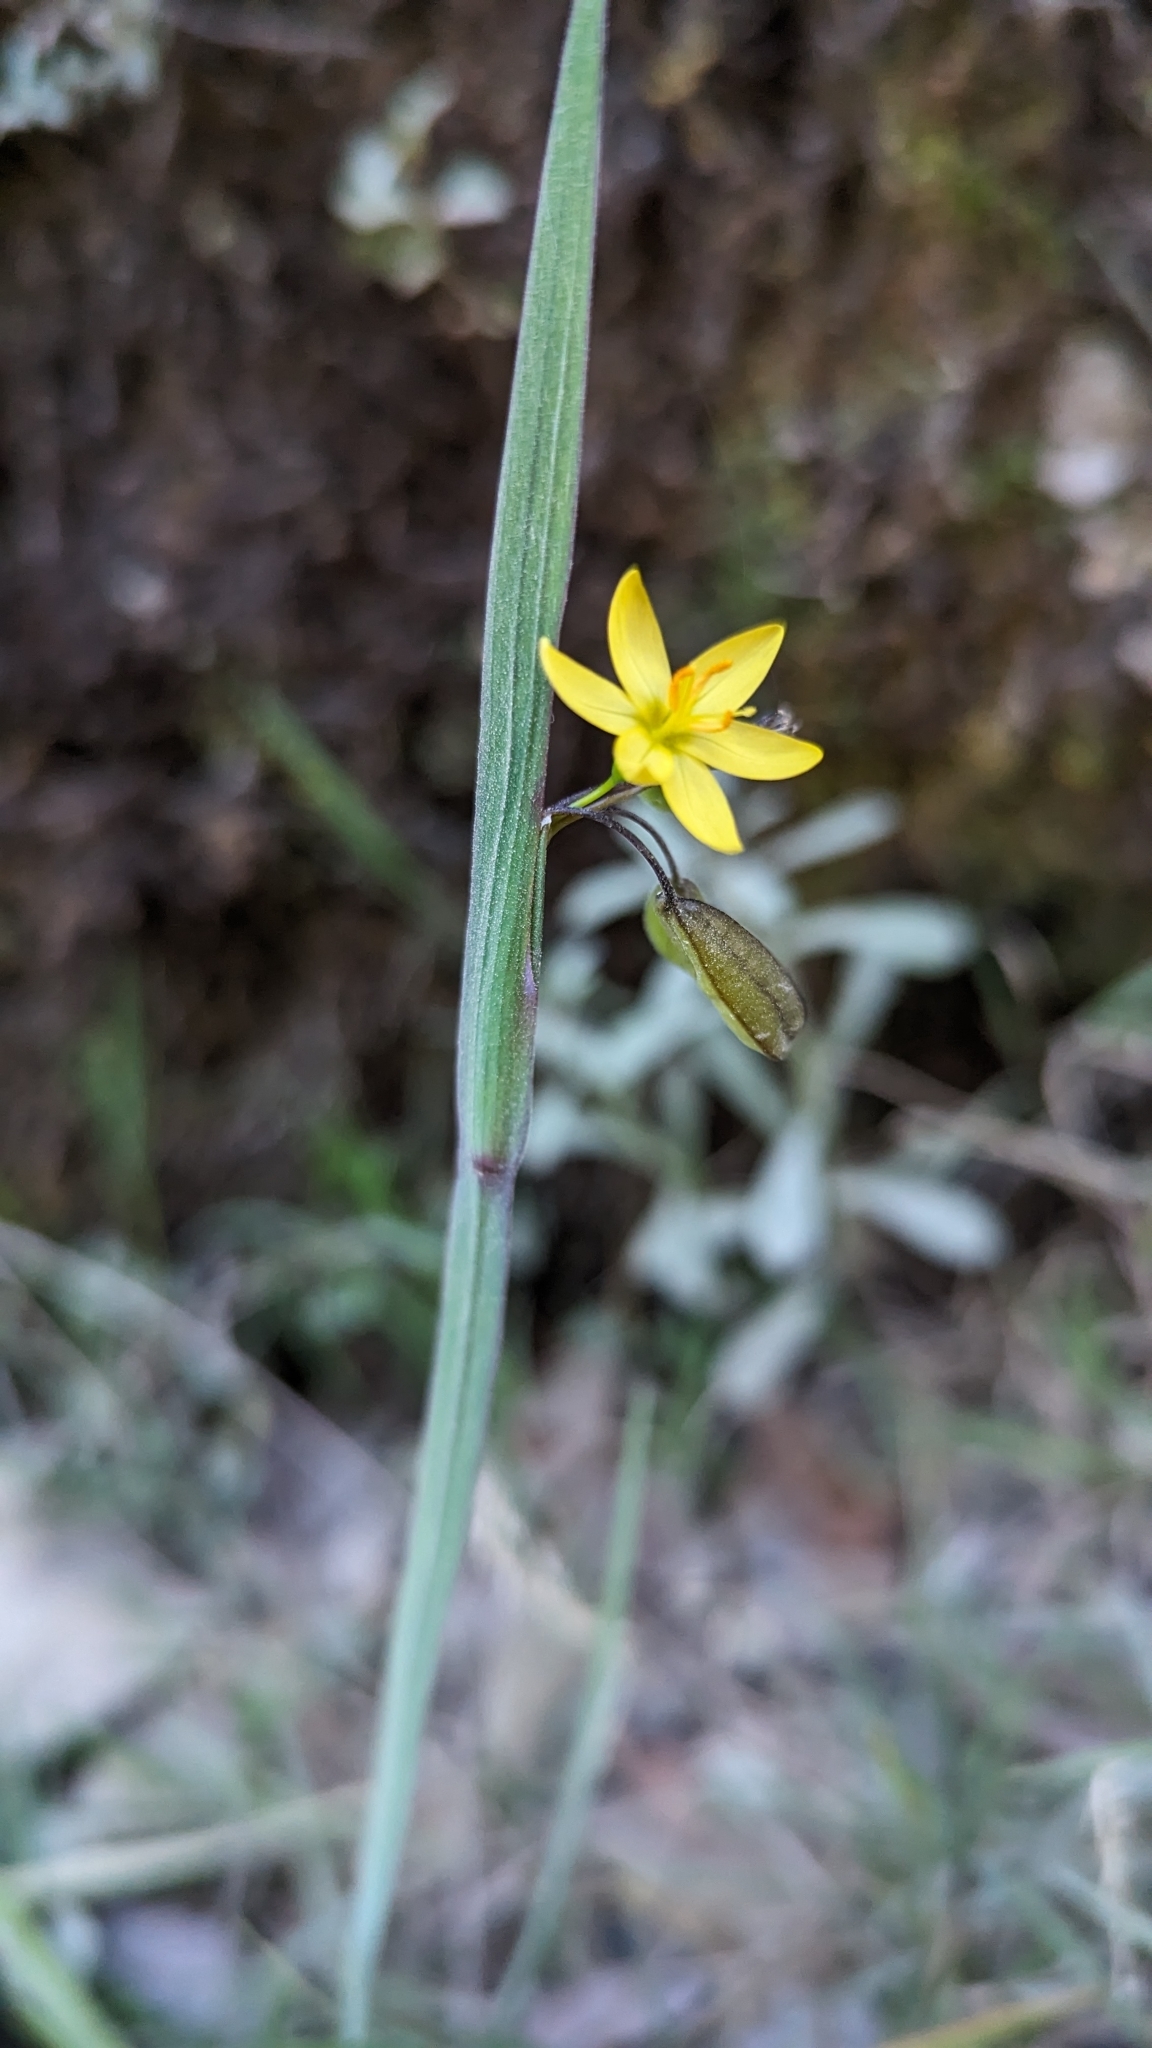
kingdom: Plantae
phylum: Tracheophyta
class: Liliopsida
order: Asparagales
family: Iridaceae
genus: Sisyrinchium
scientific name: Sisyrinchium tinctorium
